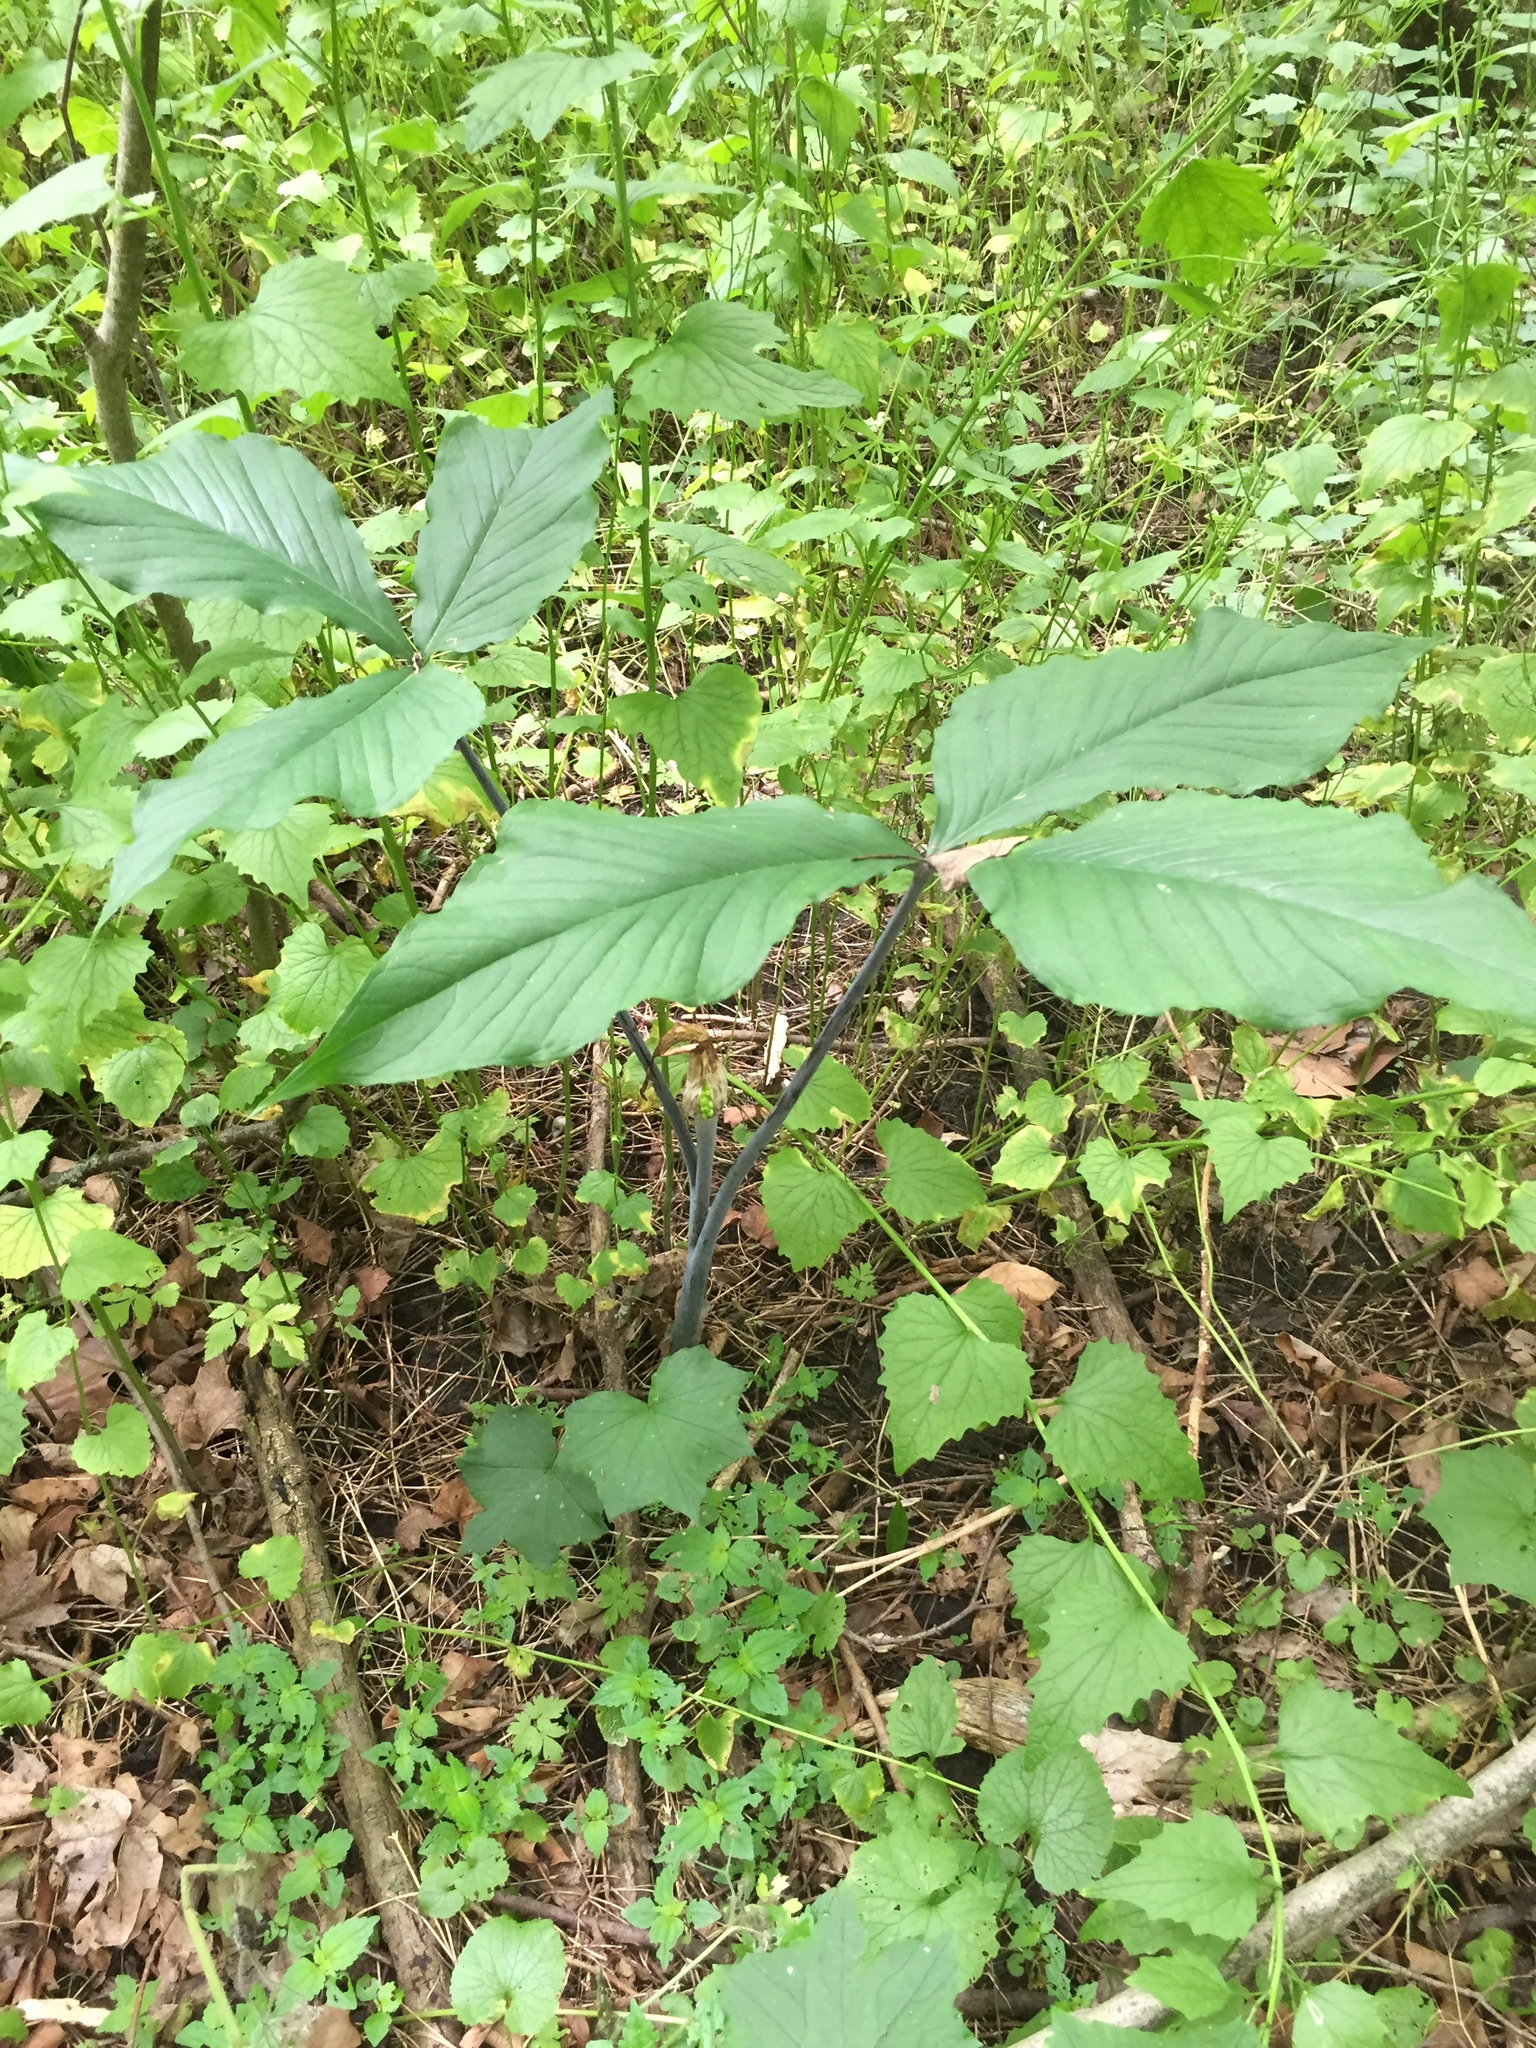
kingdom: Plantae
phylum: Tracheophyta
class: Liliopsida
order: Alismatales
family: Araceae
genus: Arisaema
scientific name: Arisaema triphyllum
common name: Jack-in-the-pulpit
